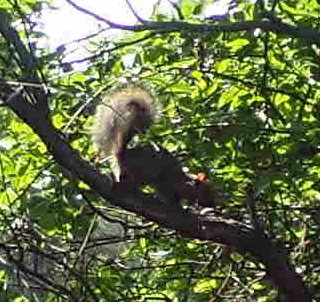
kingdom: Animalia
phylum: Chordata
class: Mammalia
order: Rodentia
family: Sciuridae
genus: Sciurus
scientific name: Sciurus carolinensis
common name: Eastern gray squirrel
